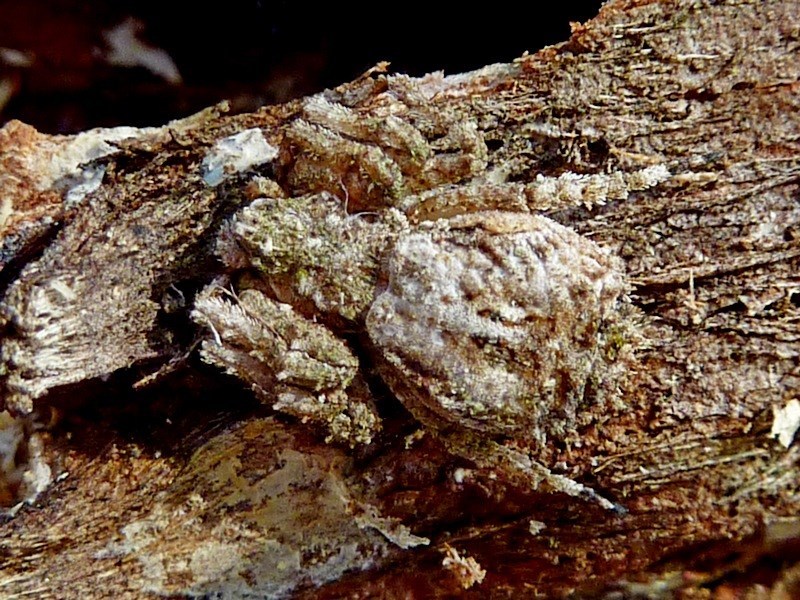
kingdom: Animalia
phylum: Arthropoda
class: Arachnida
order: Araneae
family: Thomisidae
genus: Stephanopis
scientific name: Stephanopis altifrons
